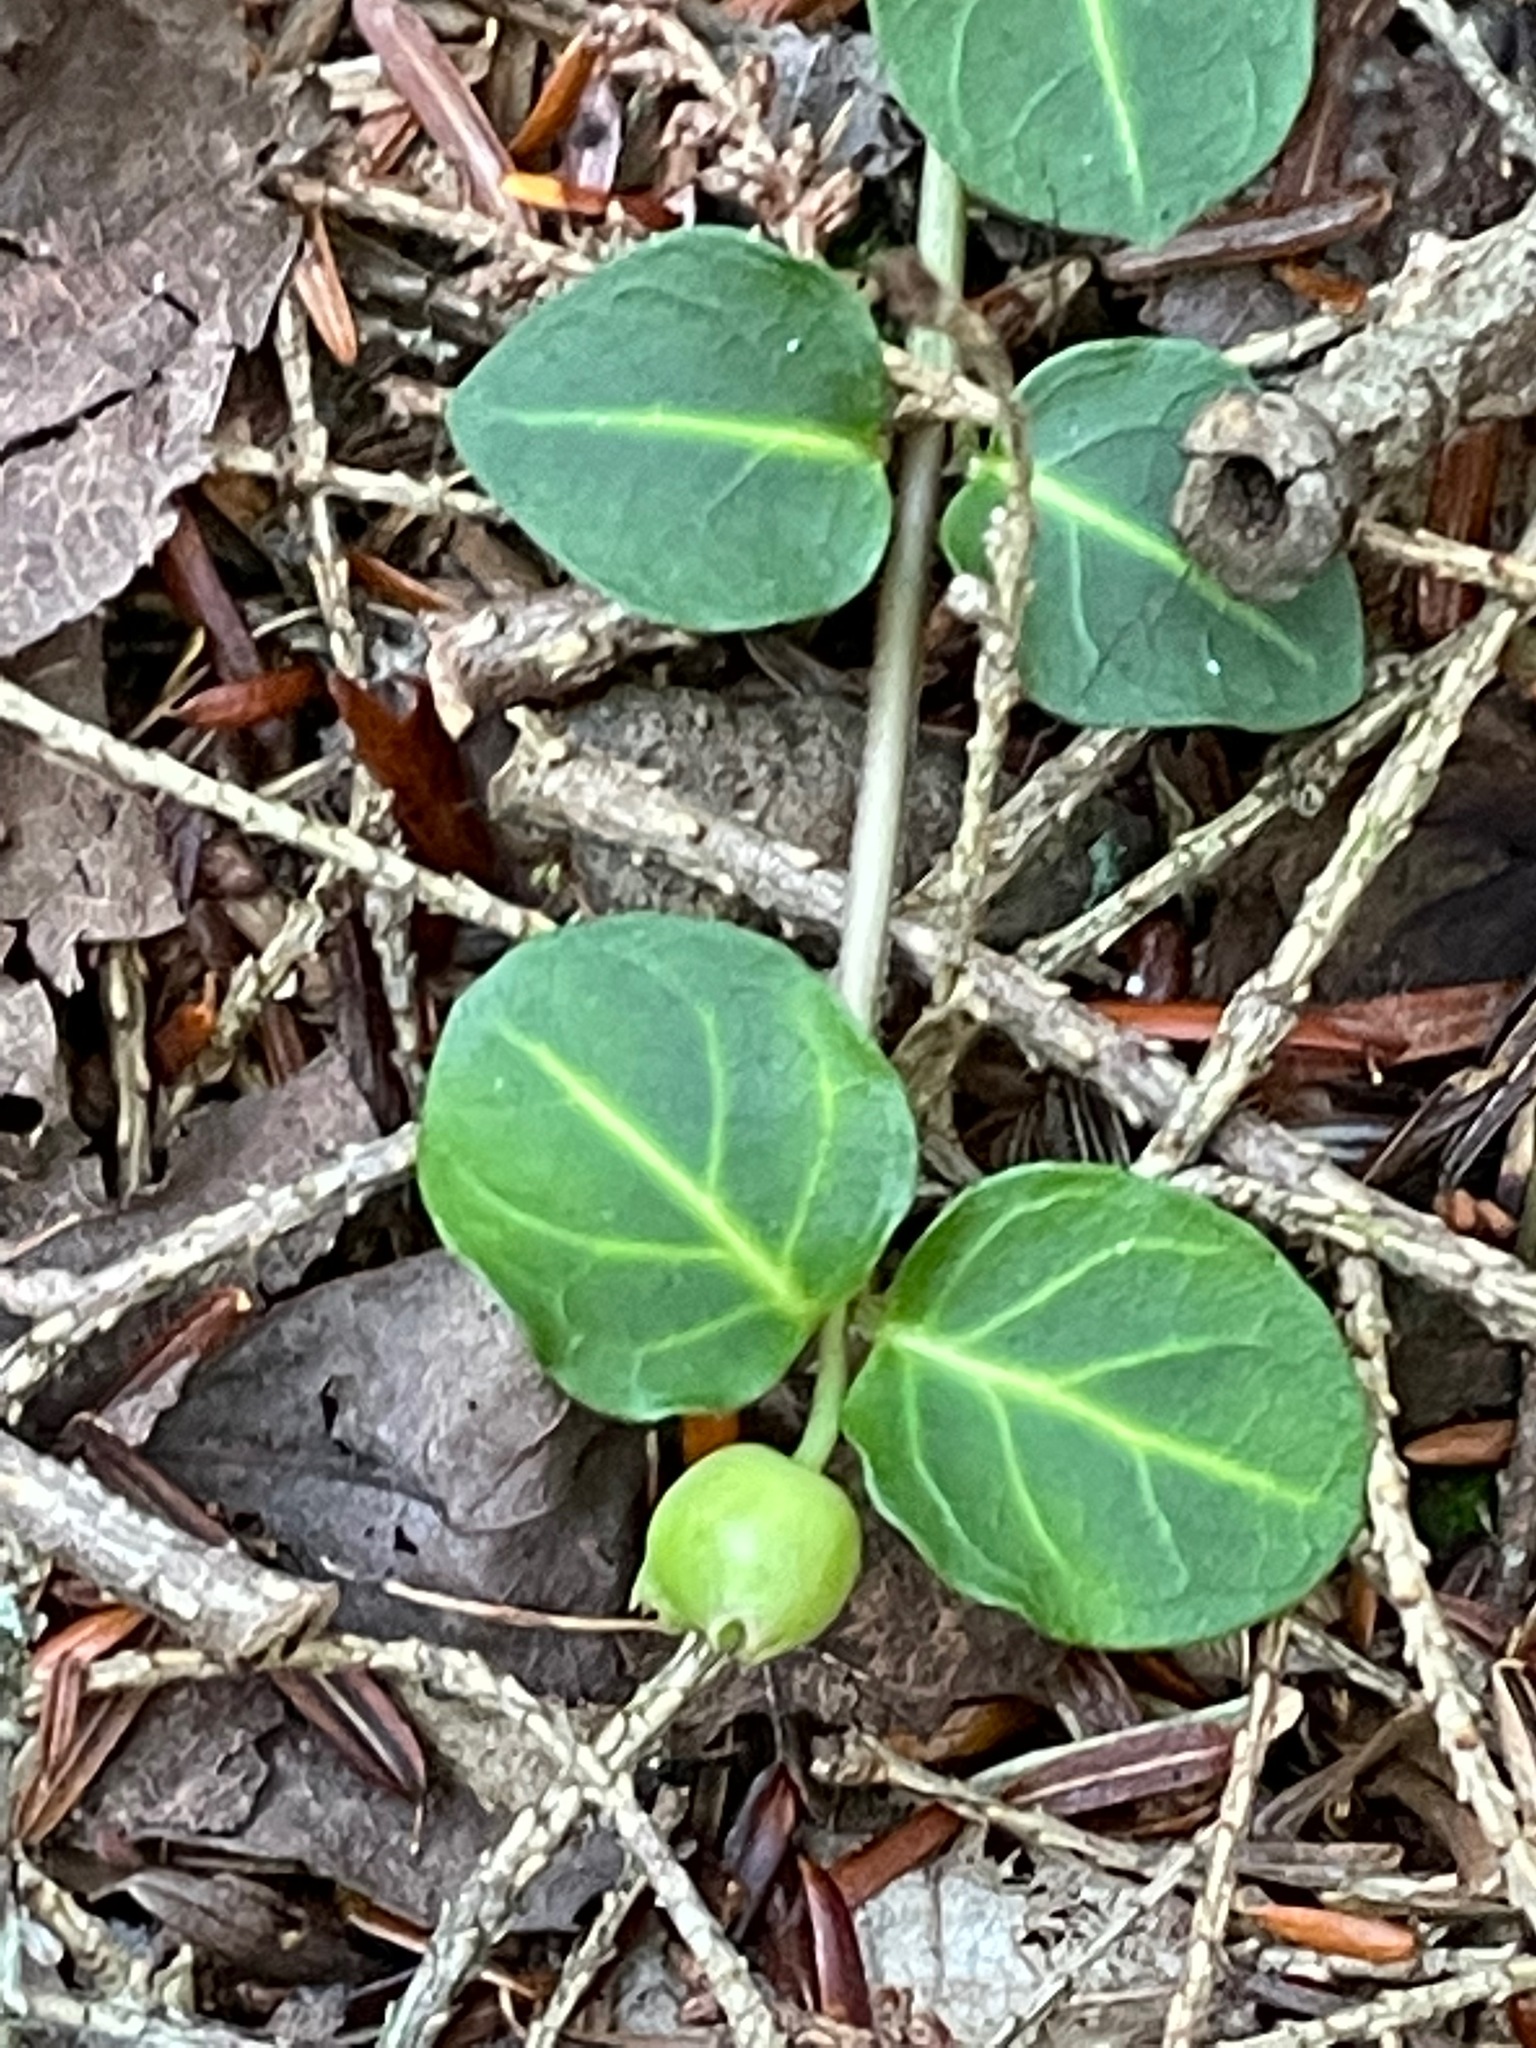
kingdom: Plantae
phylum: Tracheophyta
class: Magnoliopsida
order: Gentianales
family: Rubiaceae
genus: Mitchella
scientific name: Mitchella repens
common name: Partridge-berry
